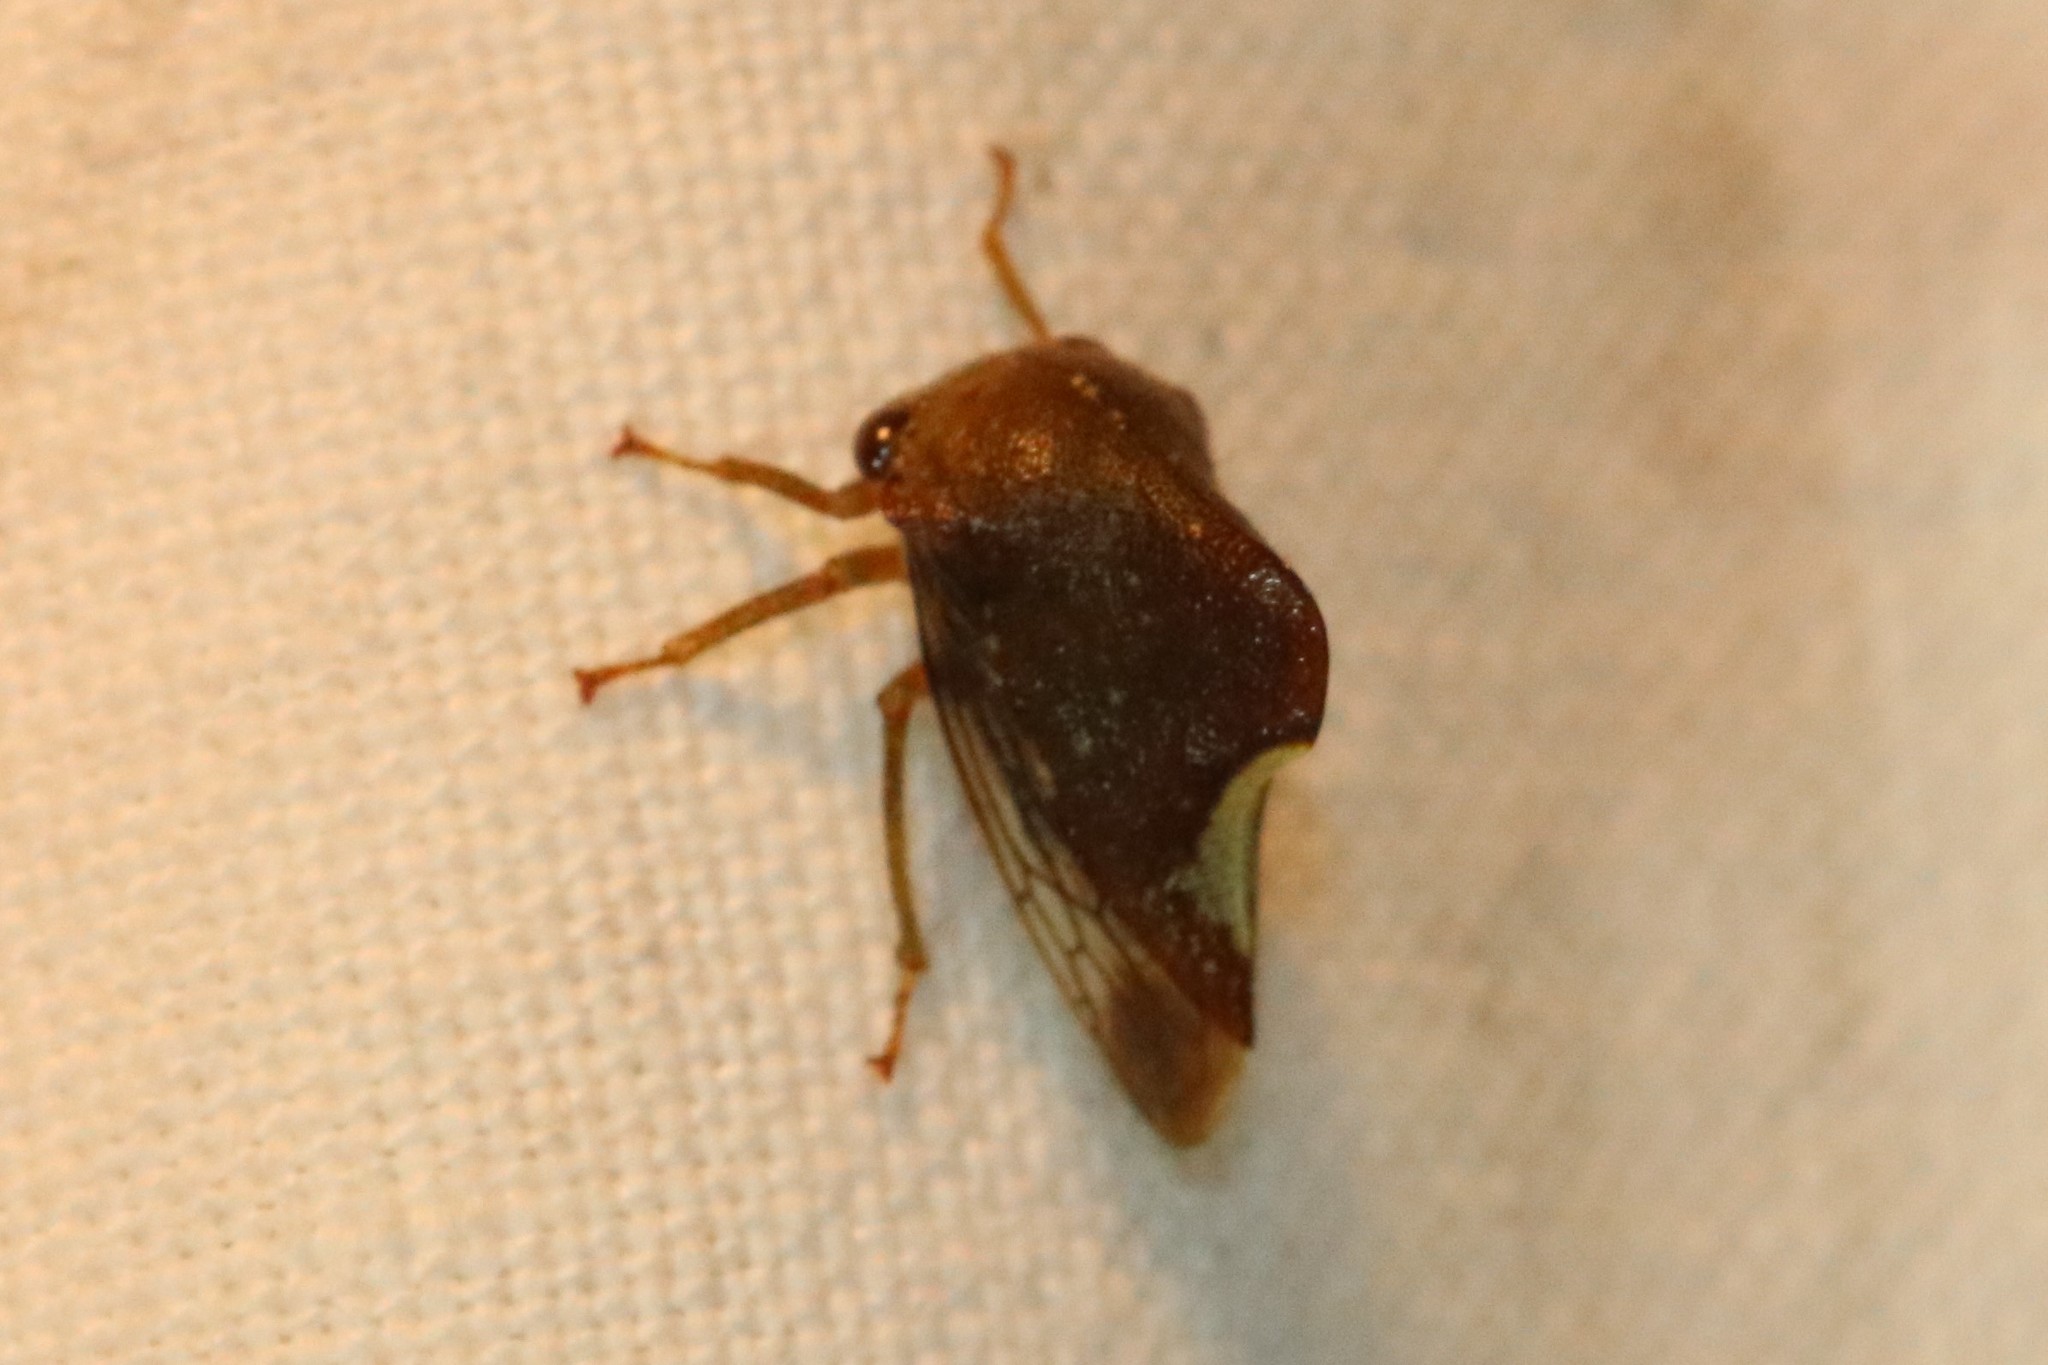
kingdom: Animalia
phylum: Arthropoda
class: Insecta
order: Hemiptera
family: Membracidae
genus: Telamona
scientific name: Telamona monticola
